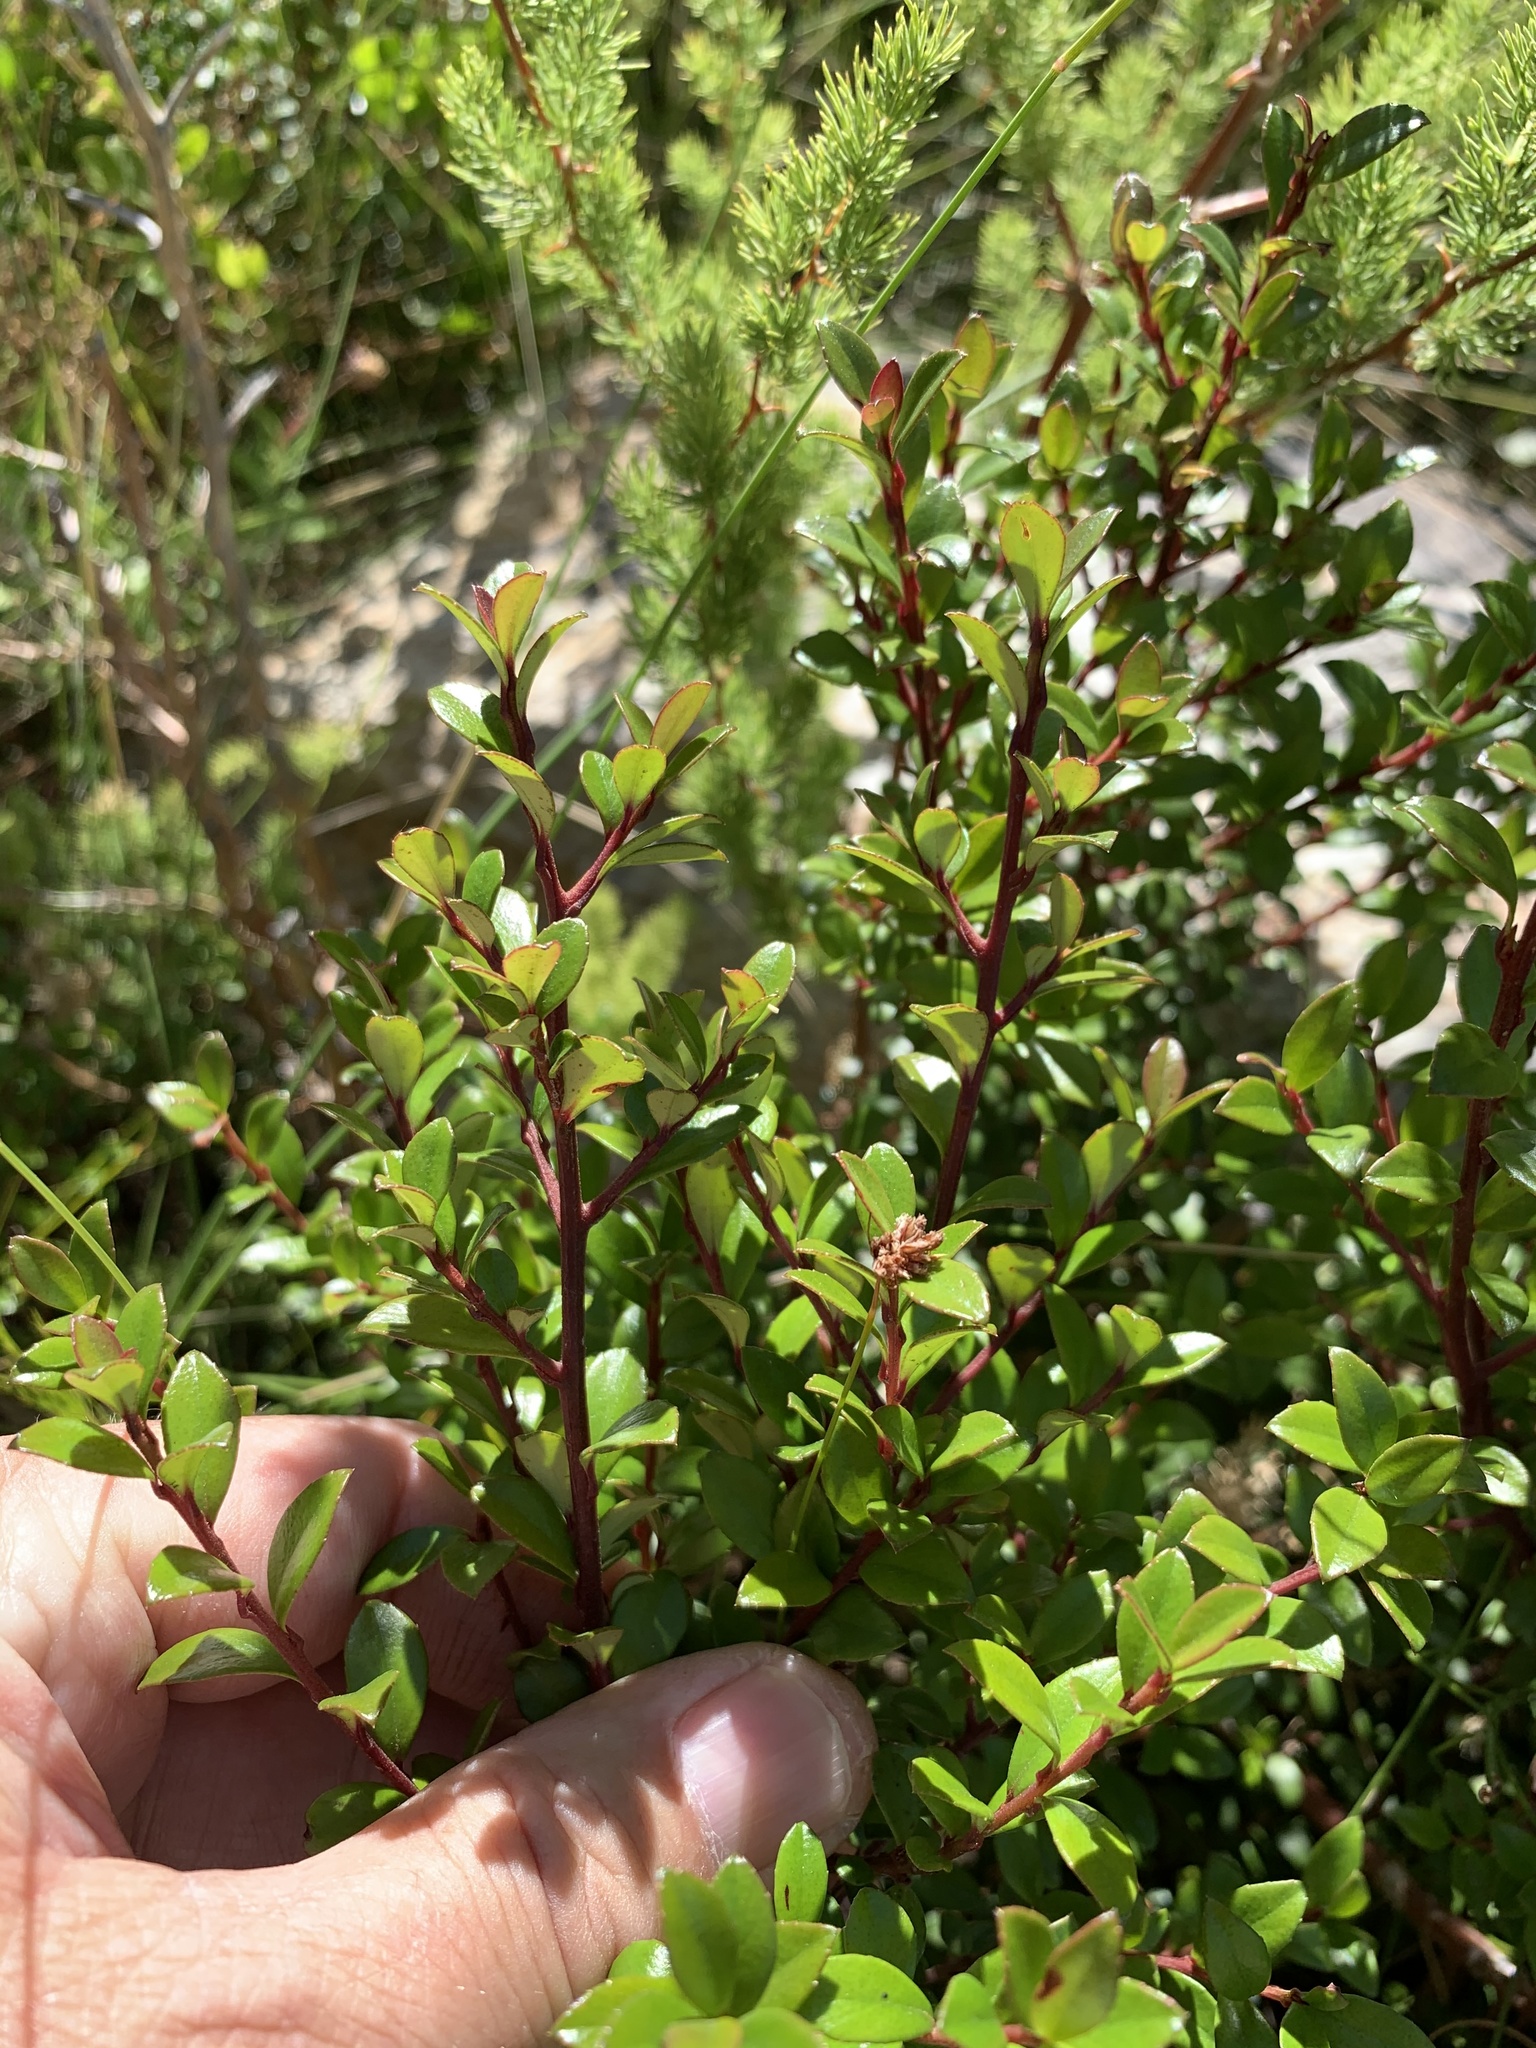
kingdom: Plantae
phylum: Tracheophyta
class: Magnoliopsida
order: Ericales
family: Primulaceae
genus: Myrsine
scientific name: Myrsine africana
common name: African-boxwood
